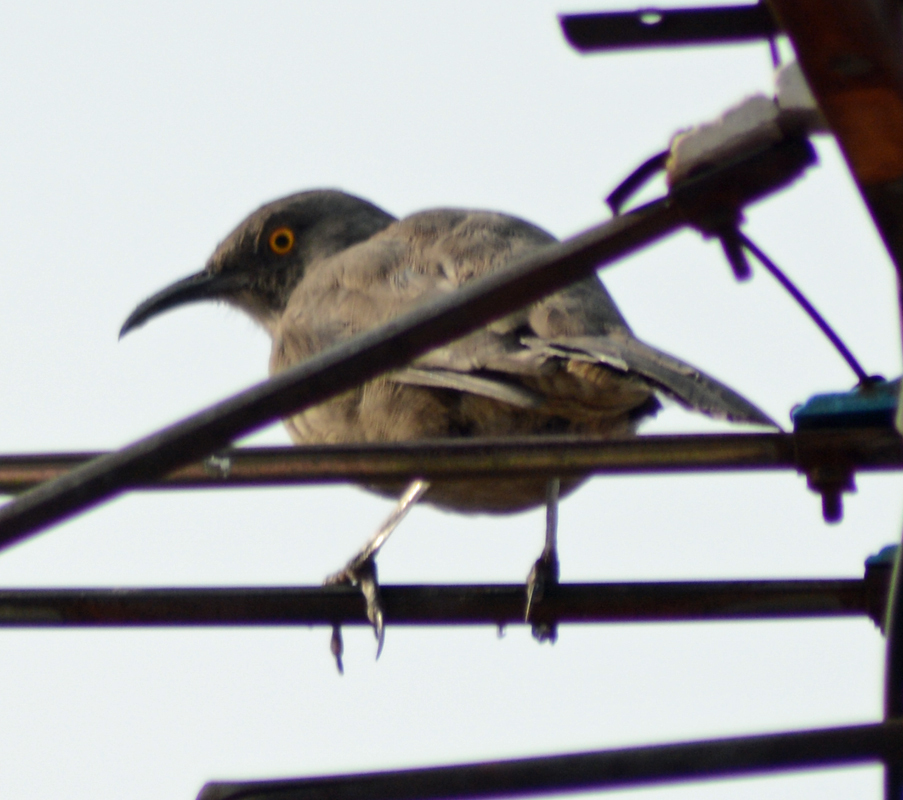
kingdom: Animalia
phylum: Chordata
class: Aves
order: Passeriformes
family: Mimidae
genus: Toxostoma
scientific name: Toxostoma curvirostre
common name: Curve-billed thrasher
